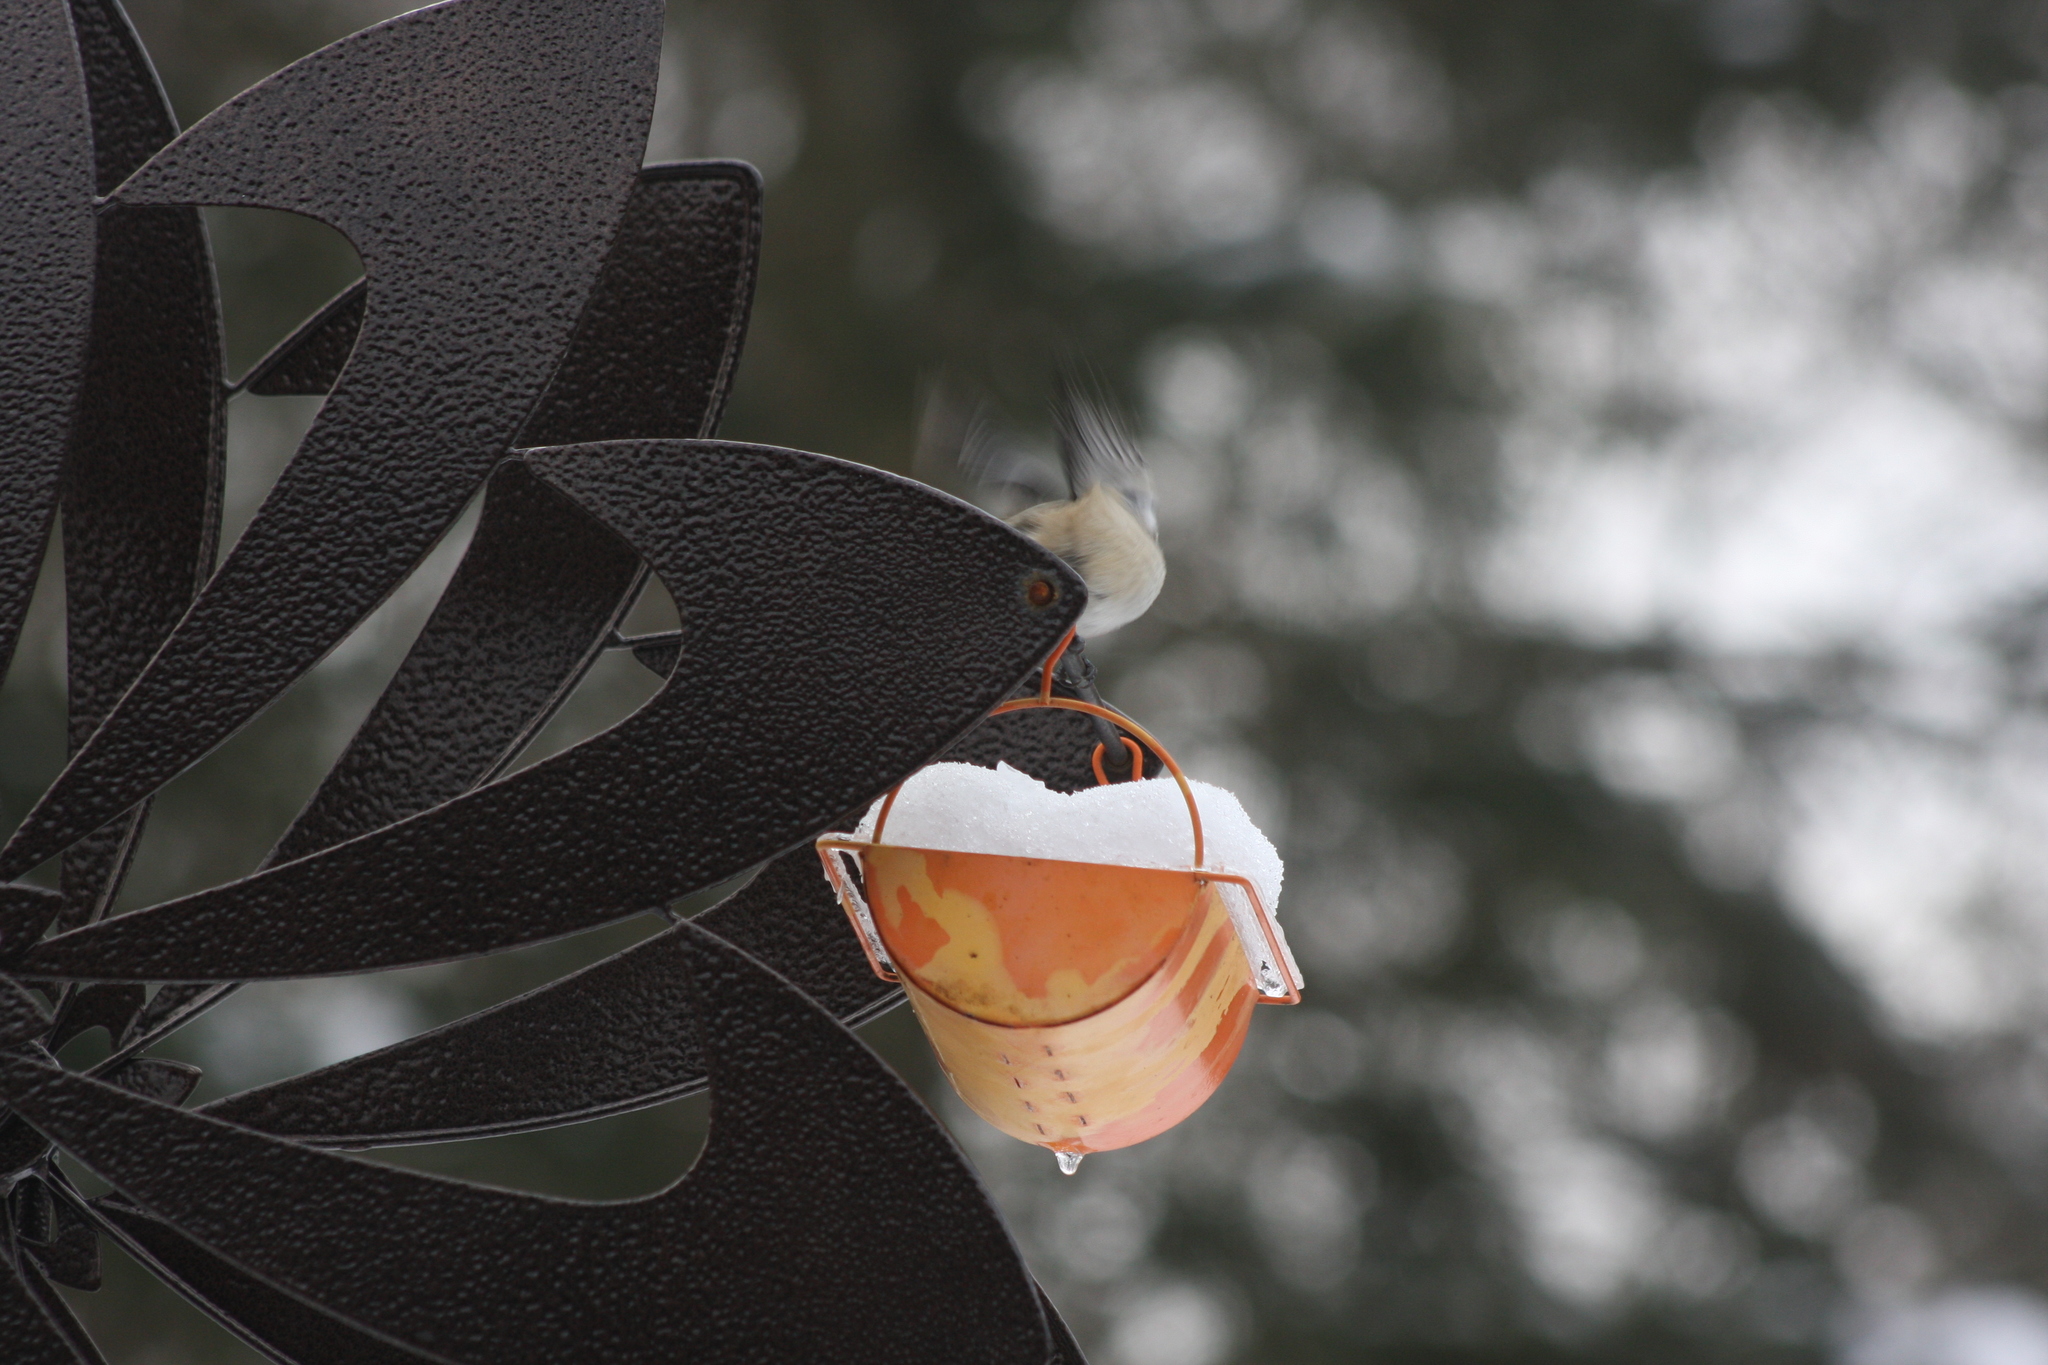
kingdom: Animalia
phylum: Chordata
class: Aves
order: Passeriformes
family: Paridae
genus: Poecile
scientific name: Poecile atricapillus
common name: Black-capped chickadee
